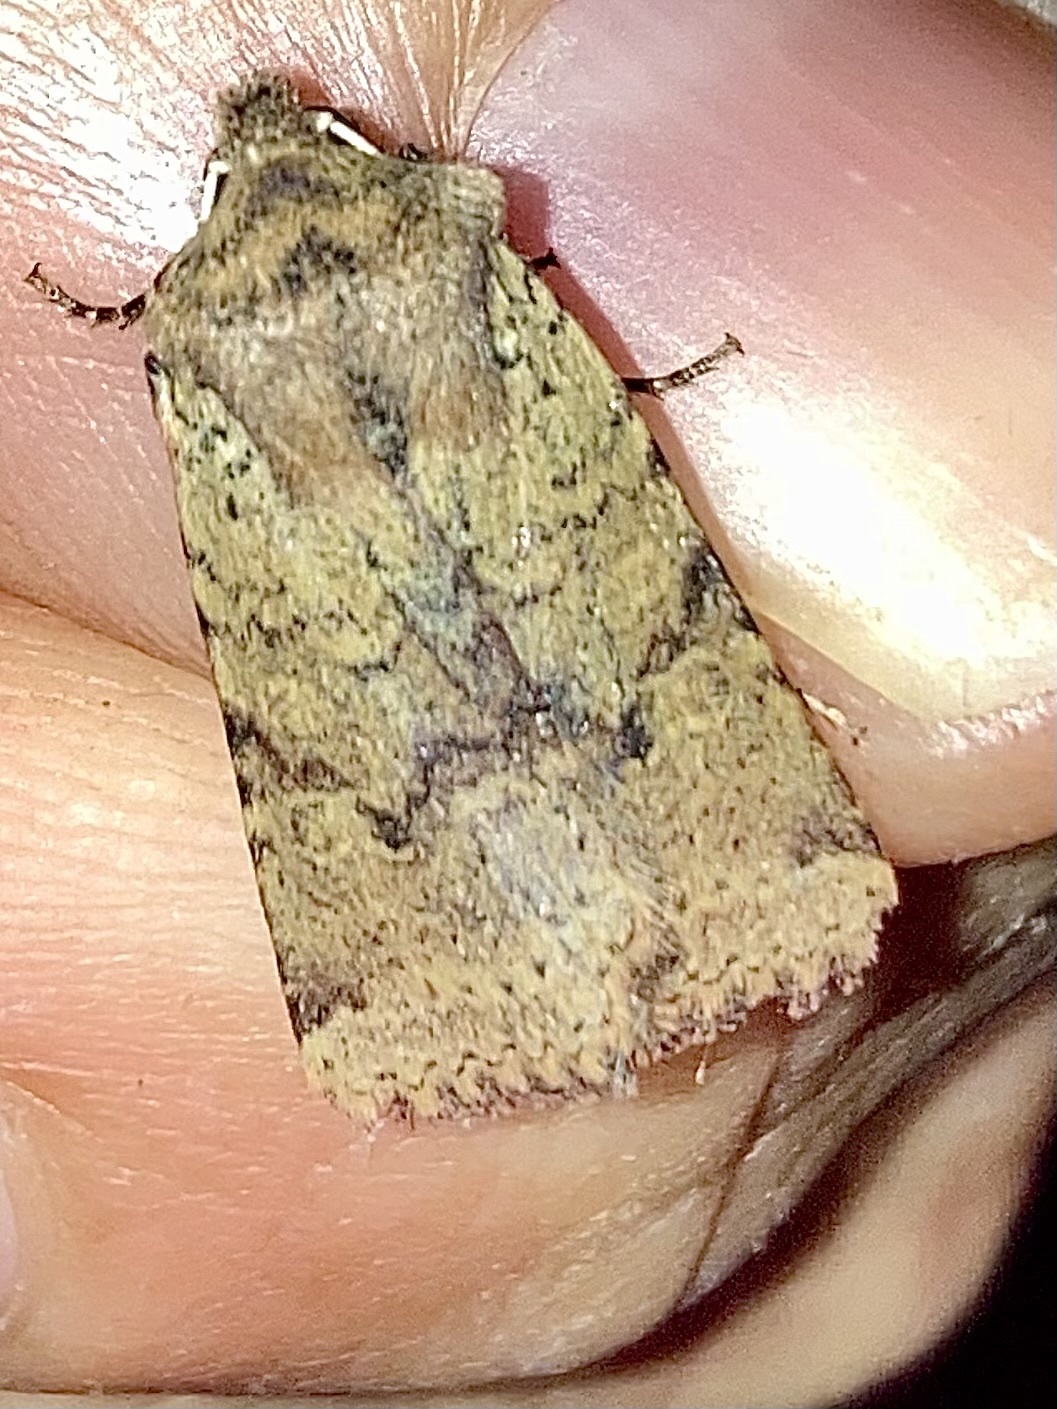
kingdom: Animalia
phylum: Arthropoda
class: Insecta
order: Lepidoptera
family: Noctuidae
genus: Agrochola
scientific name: Agrochola ruticilla
